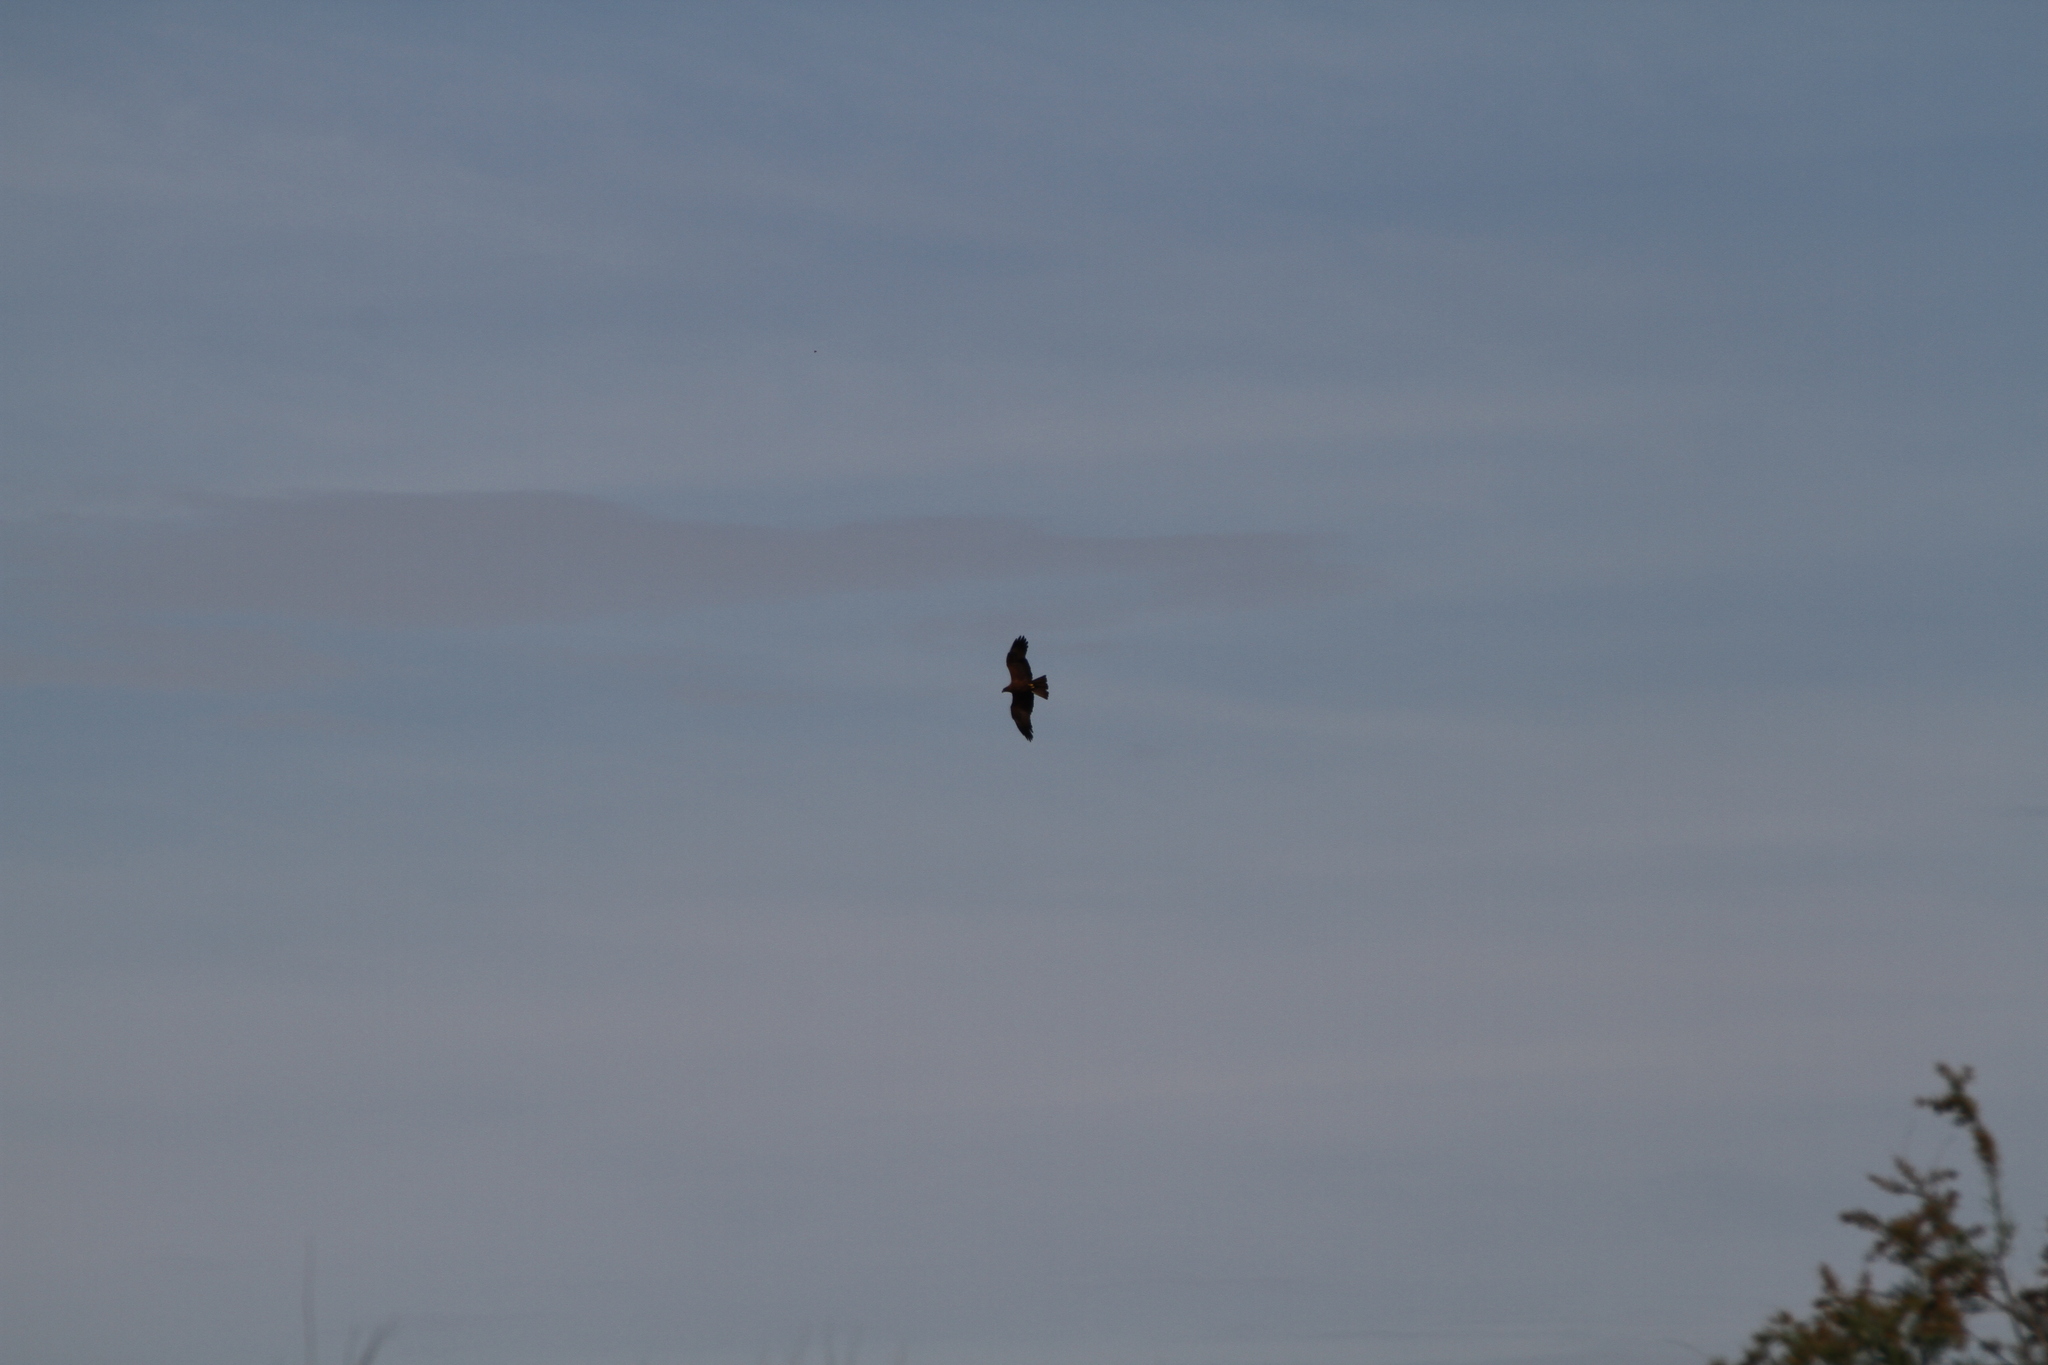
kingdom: Animalia
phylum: Chordata
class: Aves
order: Accipitriformes
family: Accipitridae
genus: Milvus
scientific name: Milvus migrans
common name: Black kite
